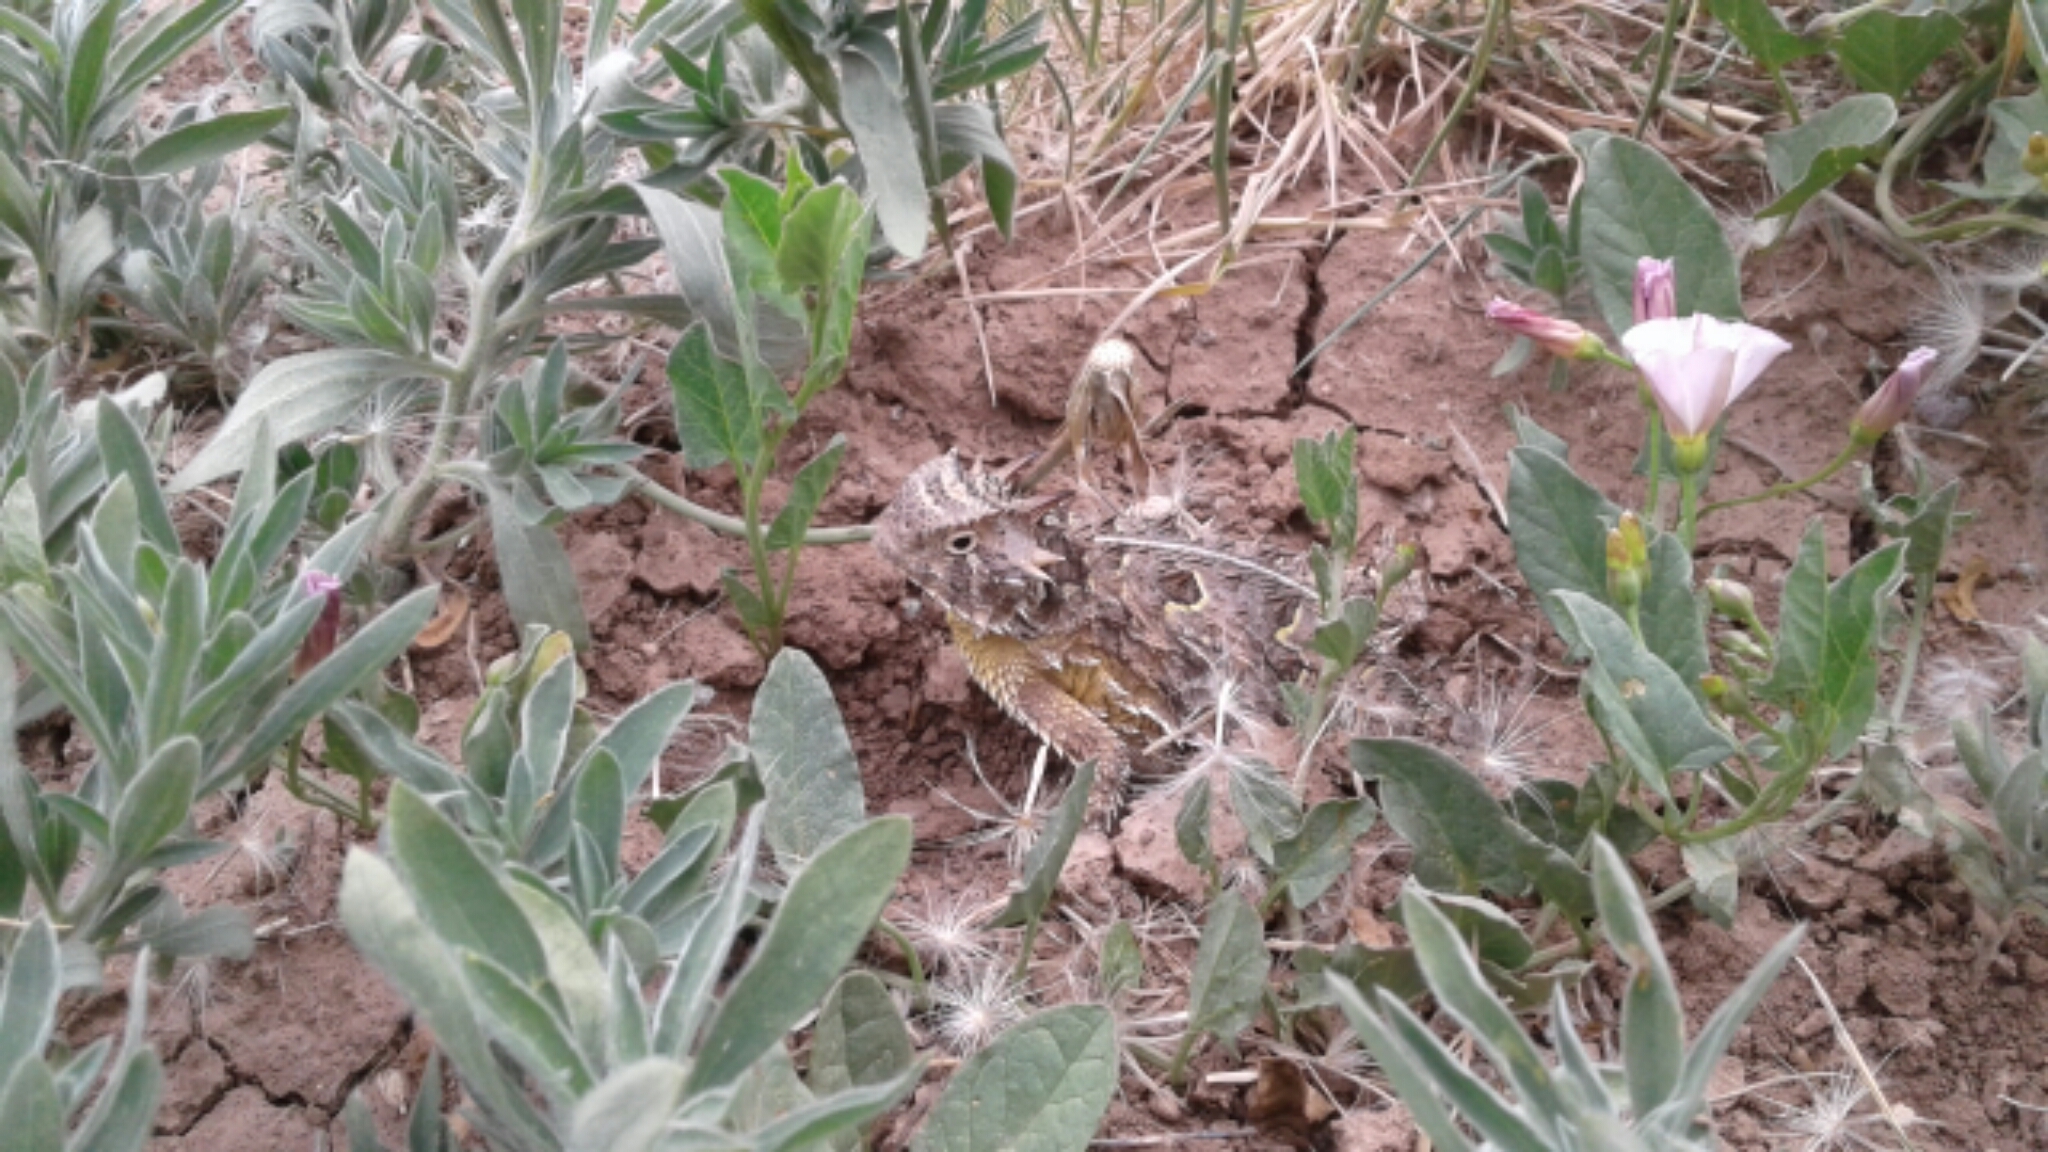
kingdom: Animalia
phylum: Chordata
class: Squamata
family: Phrynosomatidae
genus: Phrynosoma
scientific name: Phrynosoma cornutum
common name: Texas horned lizard
